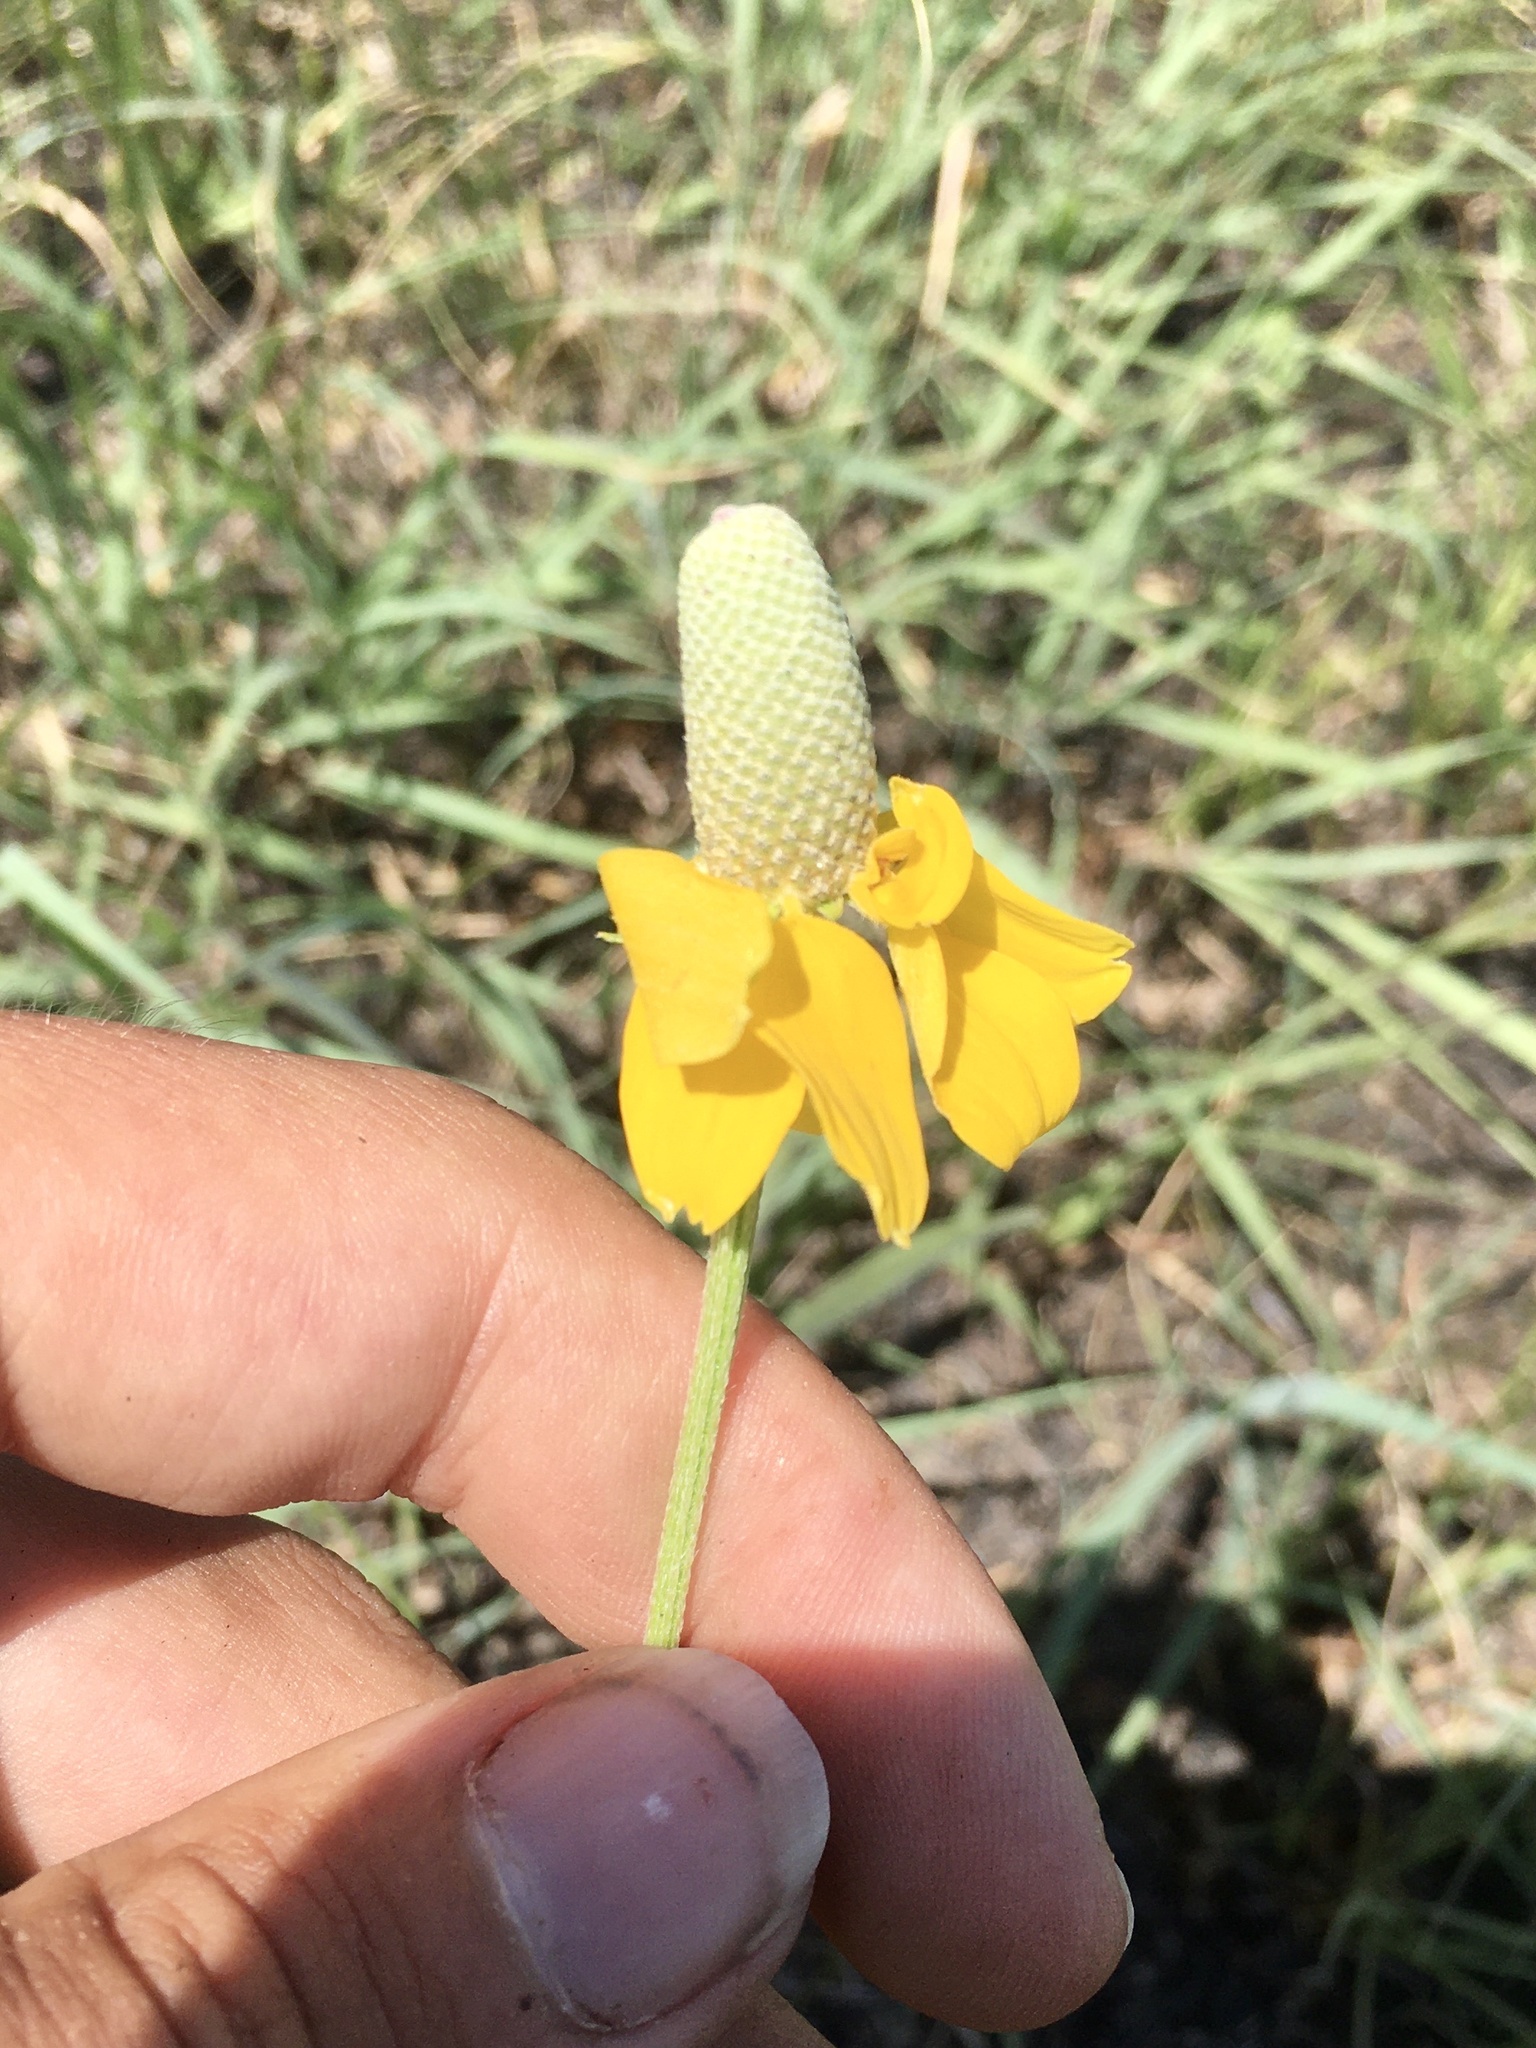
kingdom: Plantae
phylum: Tracheophyta
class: Magnoliopsida
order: Asterales
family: Asteraceae
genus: Ratibida
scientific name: Ratibida columnifera
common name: Prairie coneflower
